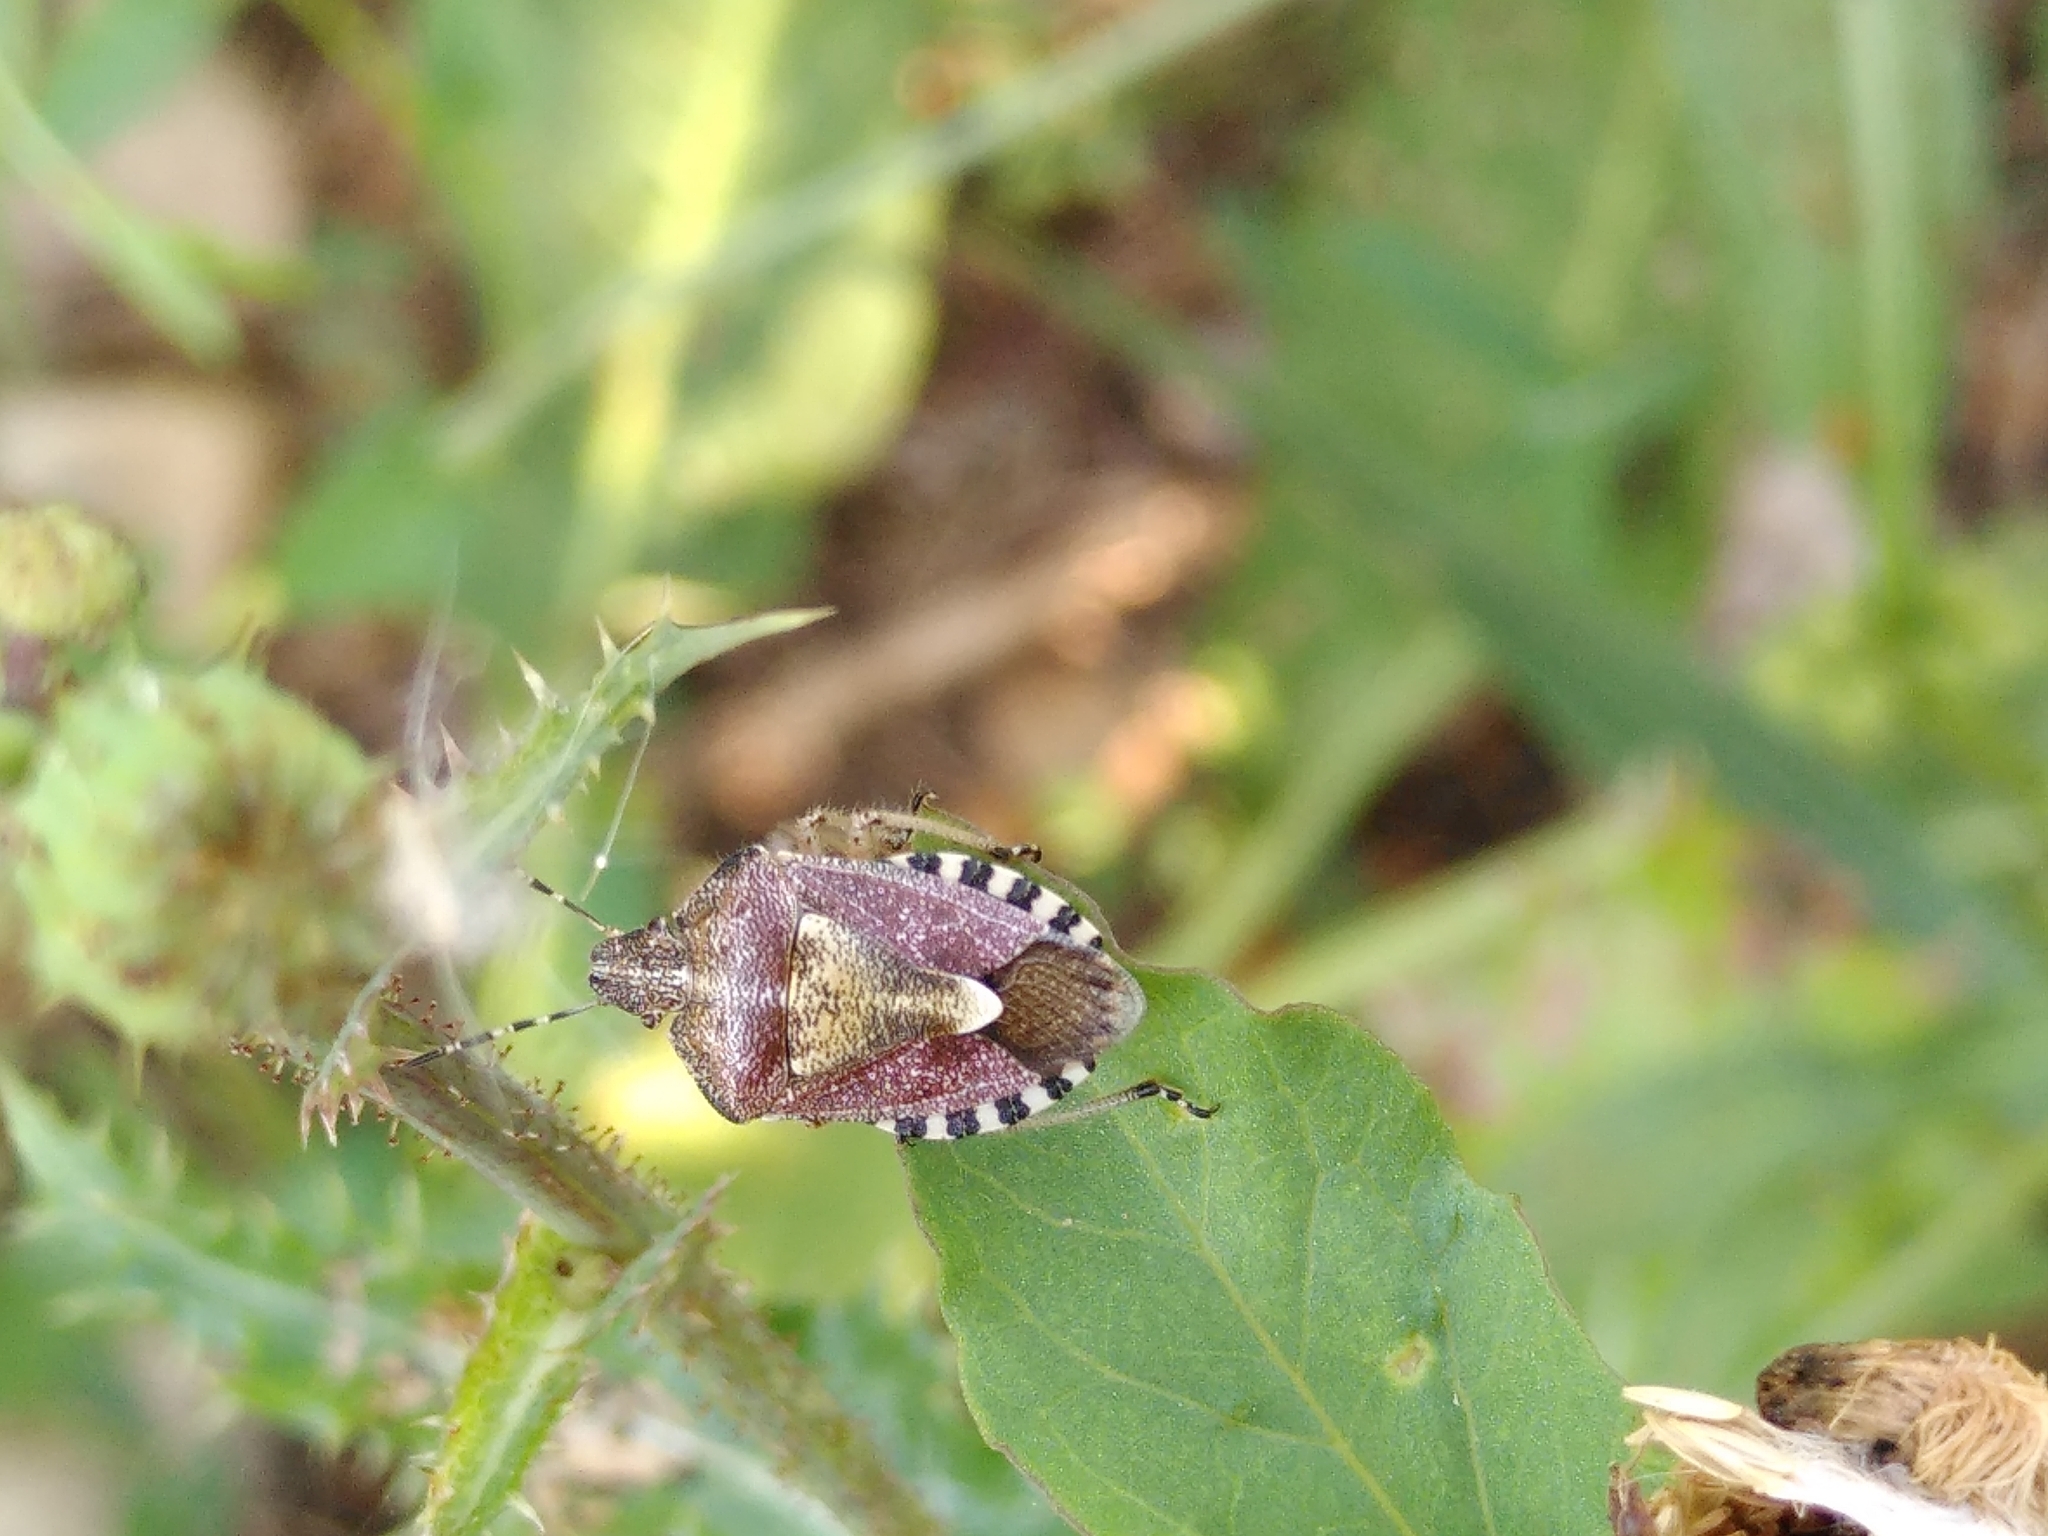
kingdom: Animalia
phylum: Arthropoda
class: Insecta
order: Hemiptera
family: Pentatomidae
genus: Dolycoris
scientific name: Dolycoris baccarum
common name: Sloe bug
